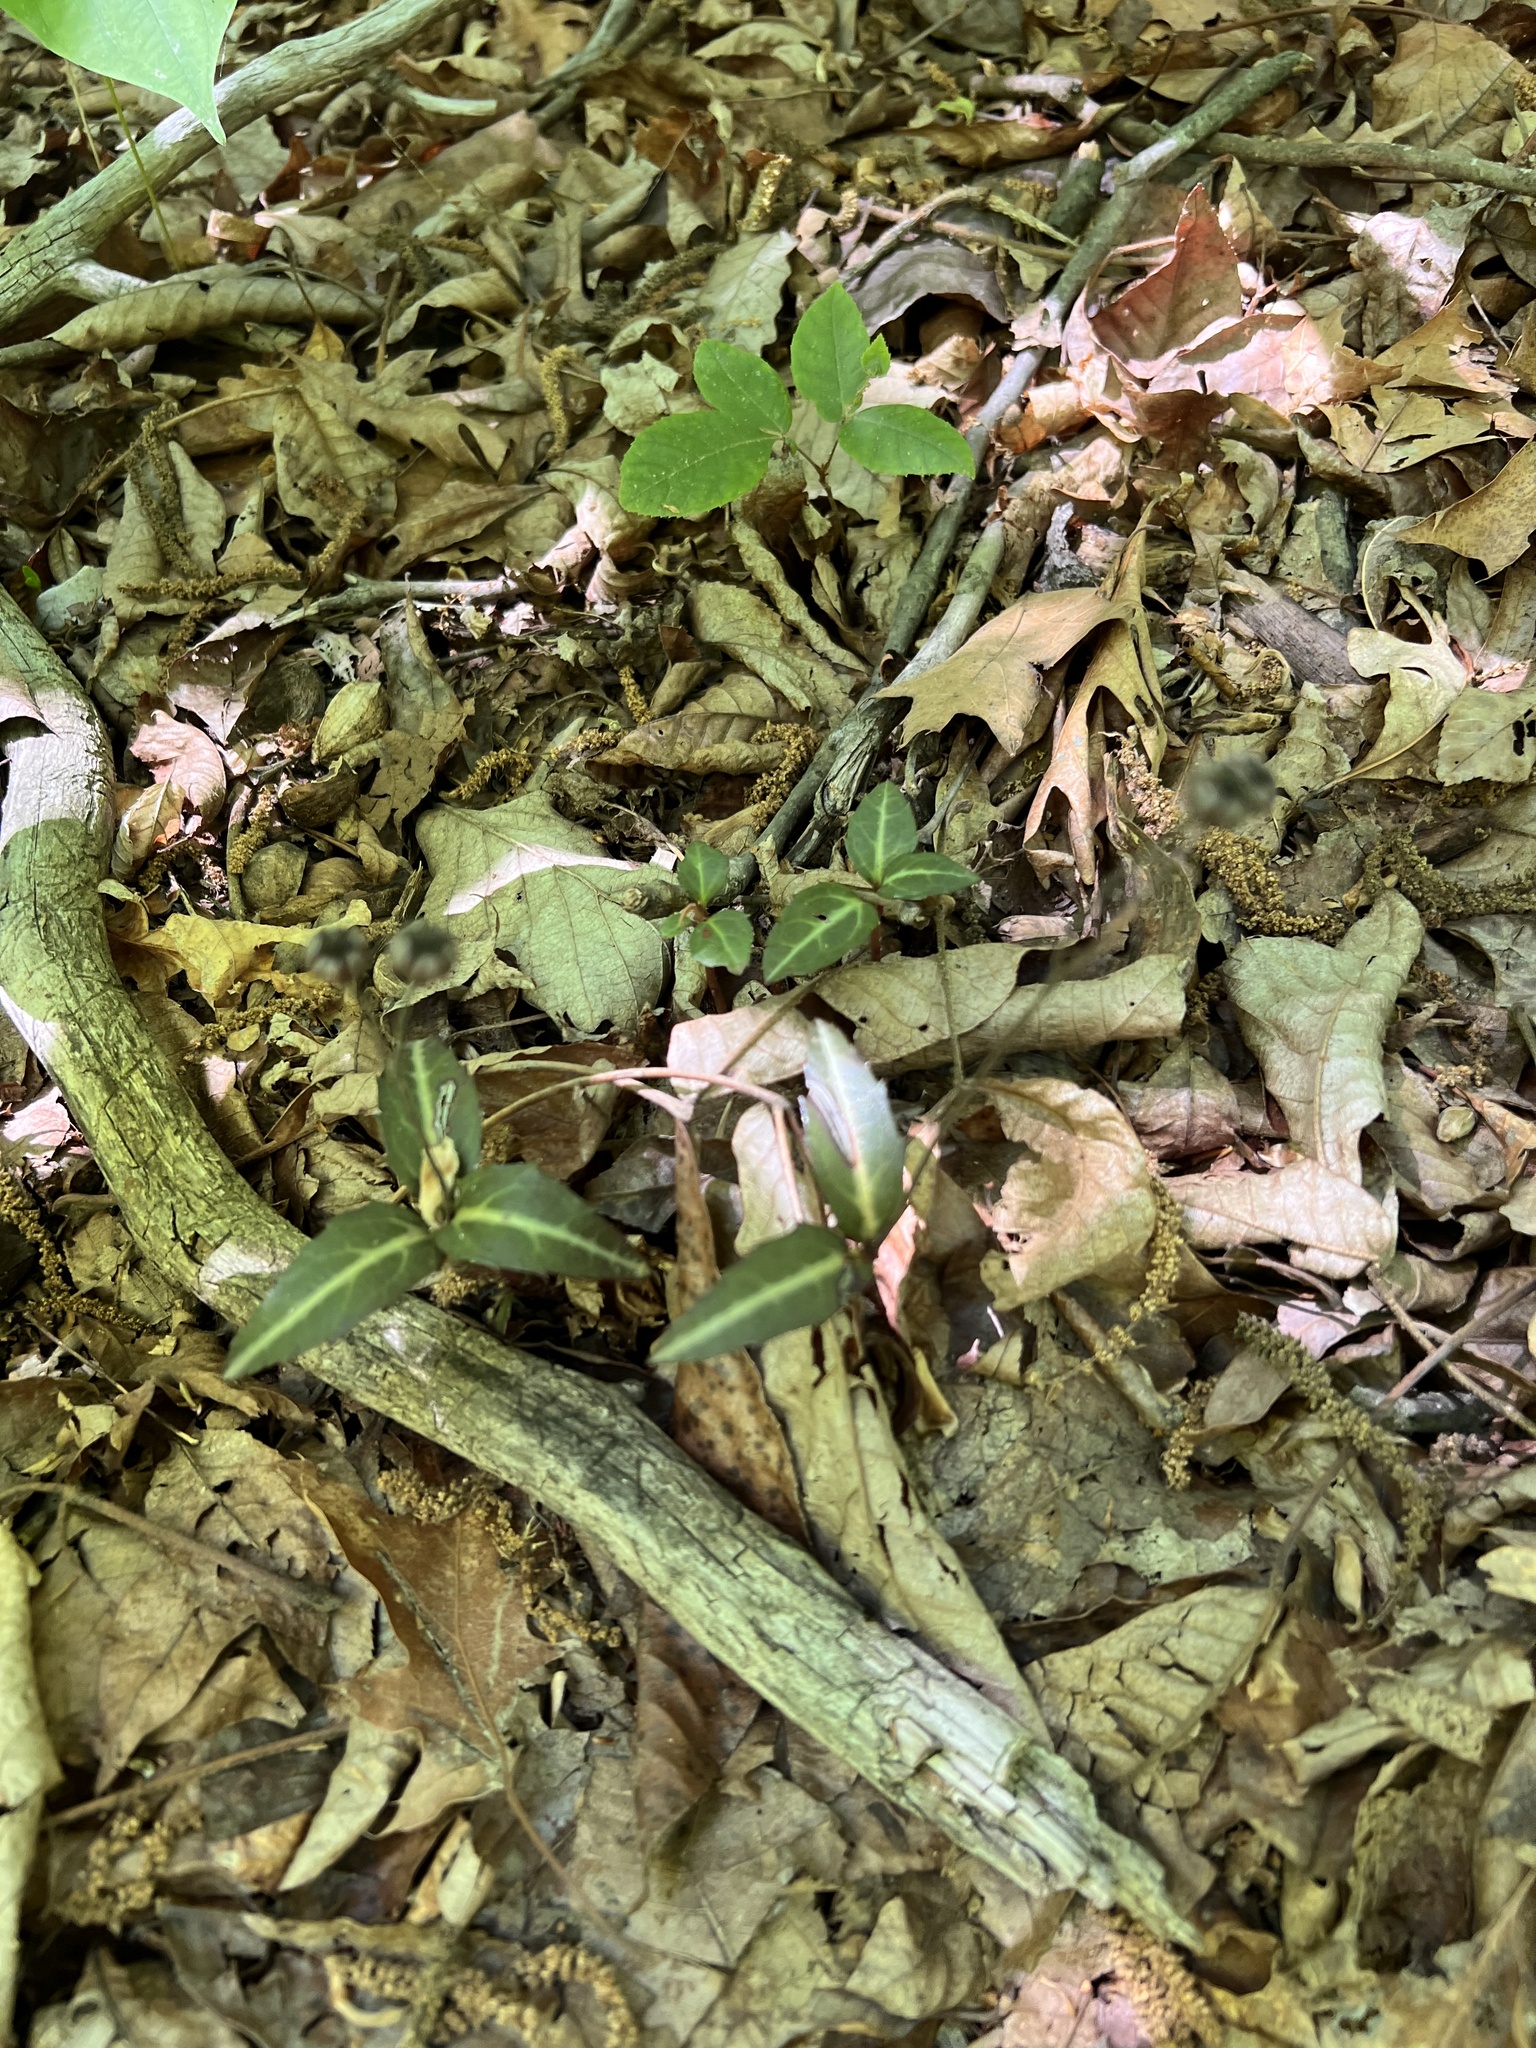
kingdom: Plantae
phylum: Tracheophyta
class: Magnoliopsida
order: Ericales
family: Ericaceae
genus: Chimaphila
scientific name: Chimaphila maculata
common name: Spotted pipsissewa
